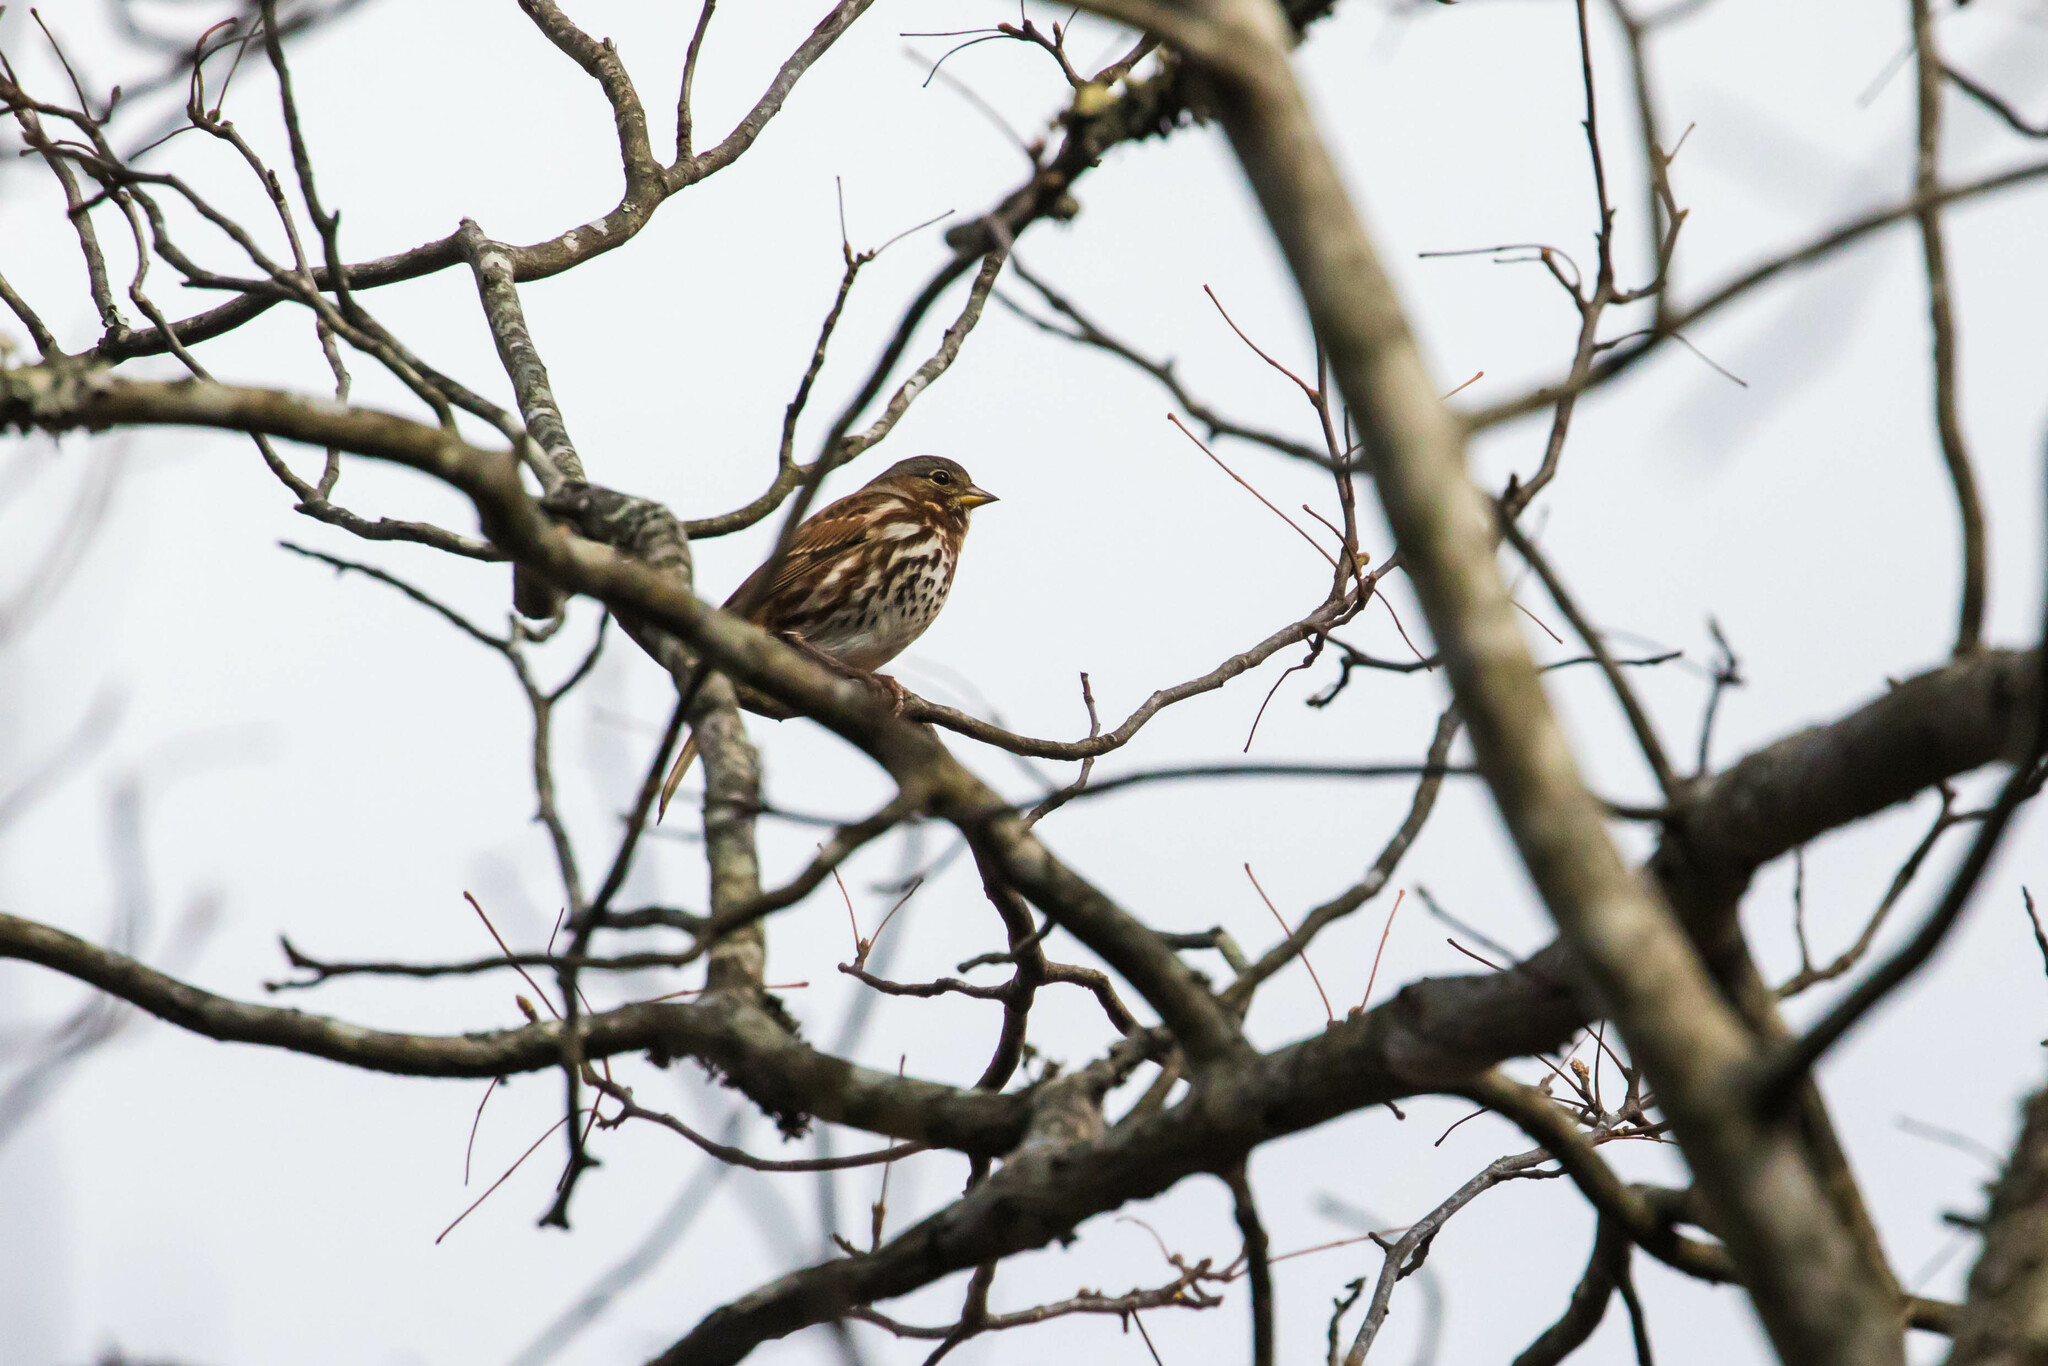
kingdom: Animalia
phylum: Chordata
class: Aves
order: Passeriformes
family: Passerellidae
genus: Passerella
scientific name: Passerella iliaca
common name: Fox sparrow
